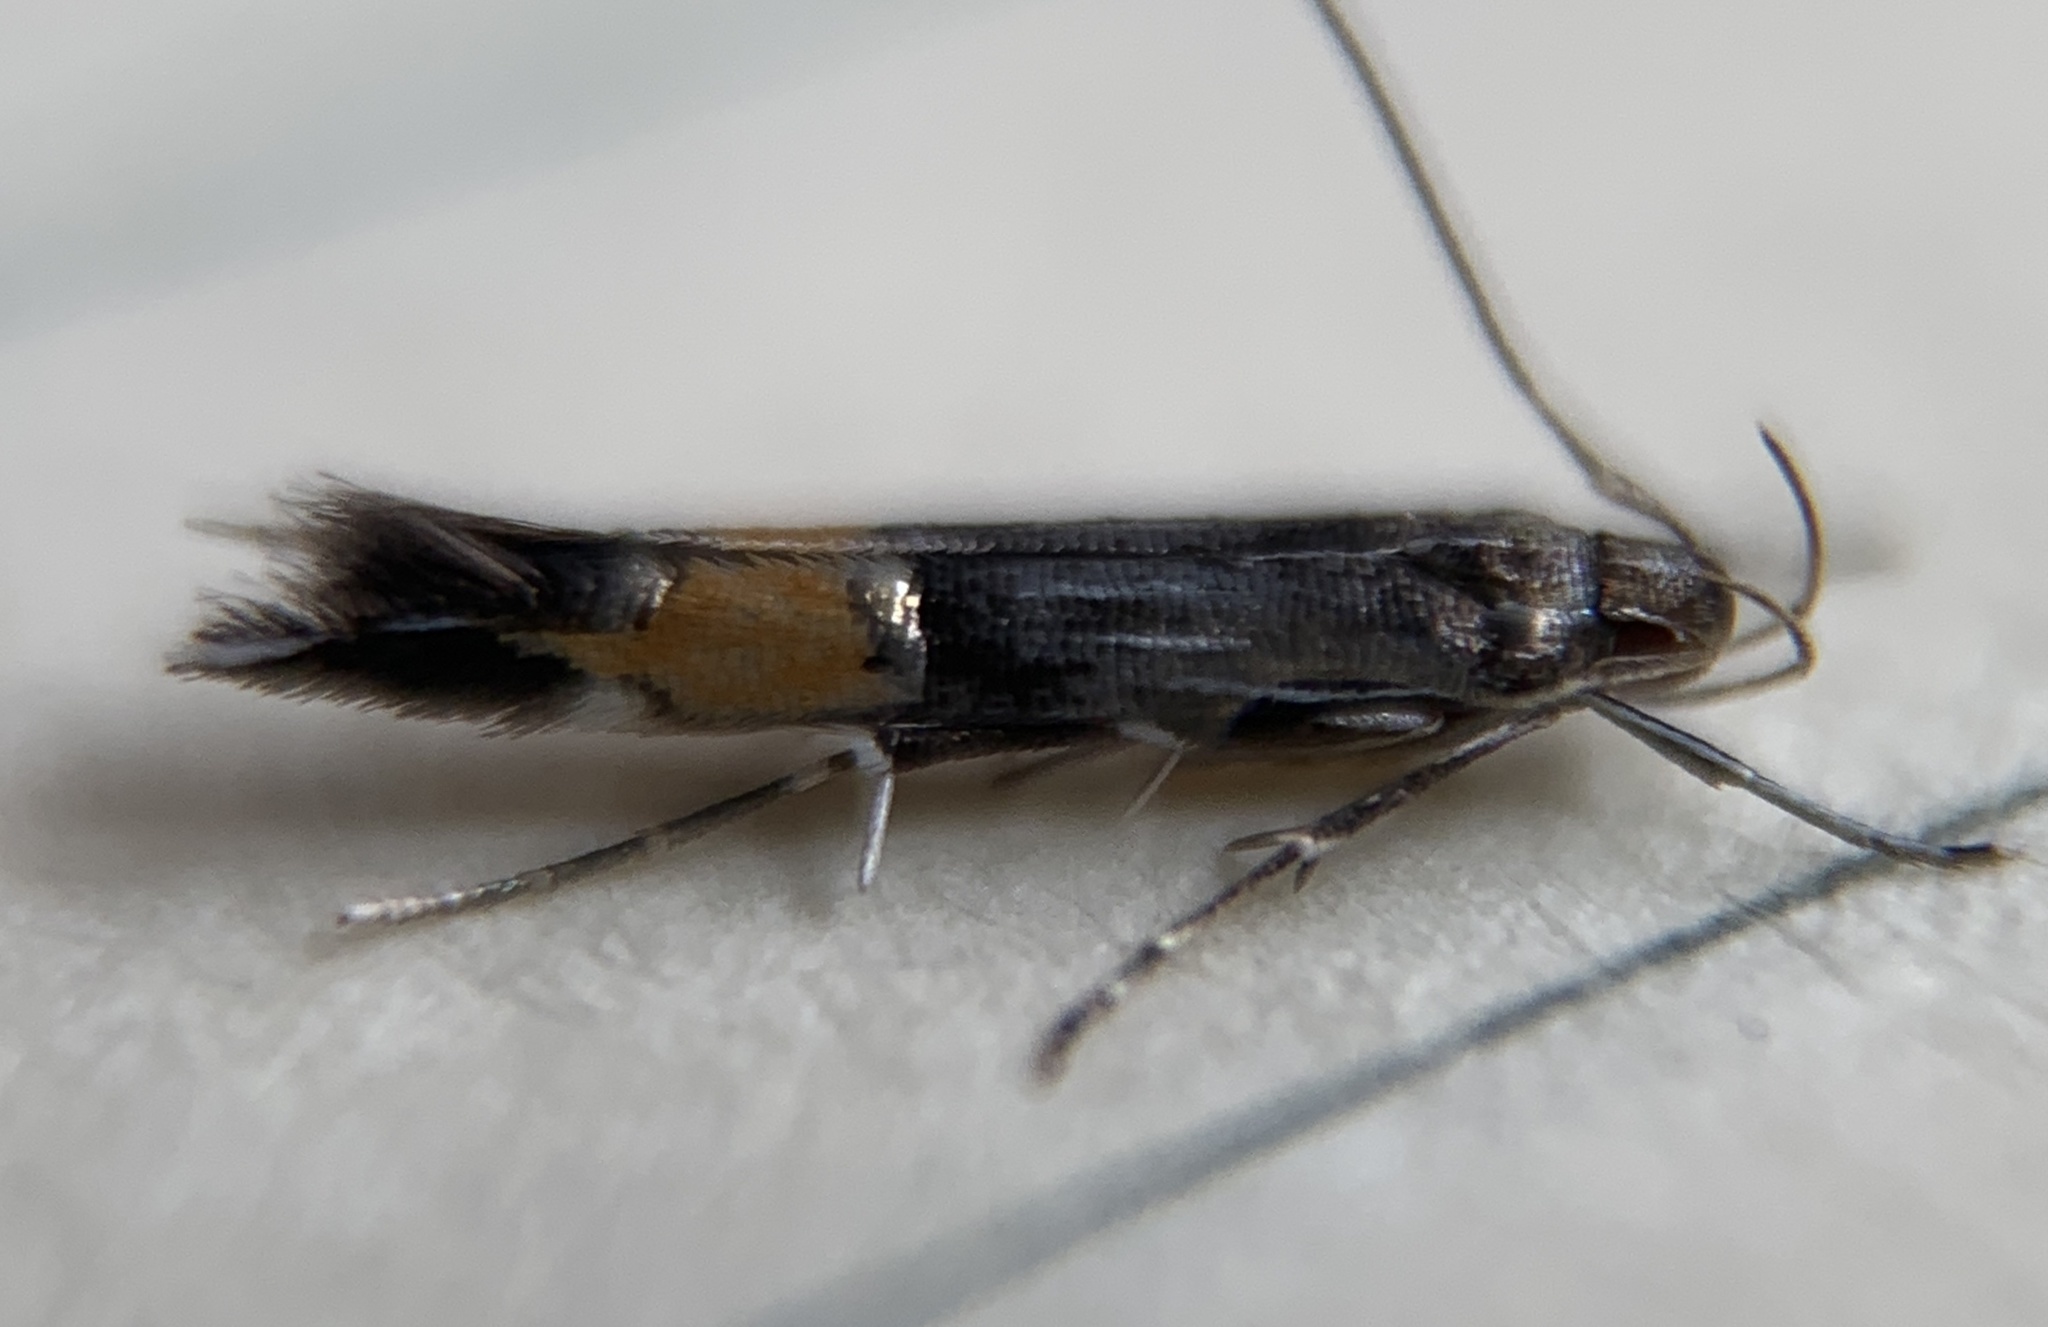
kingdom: Animalia
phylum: Arthropoda
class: Insecta
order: Lepidoptera
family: Cosmopterigidae
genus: Cosmopterix
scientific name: Cosmopterix attenuatella
